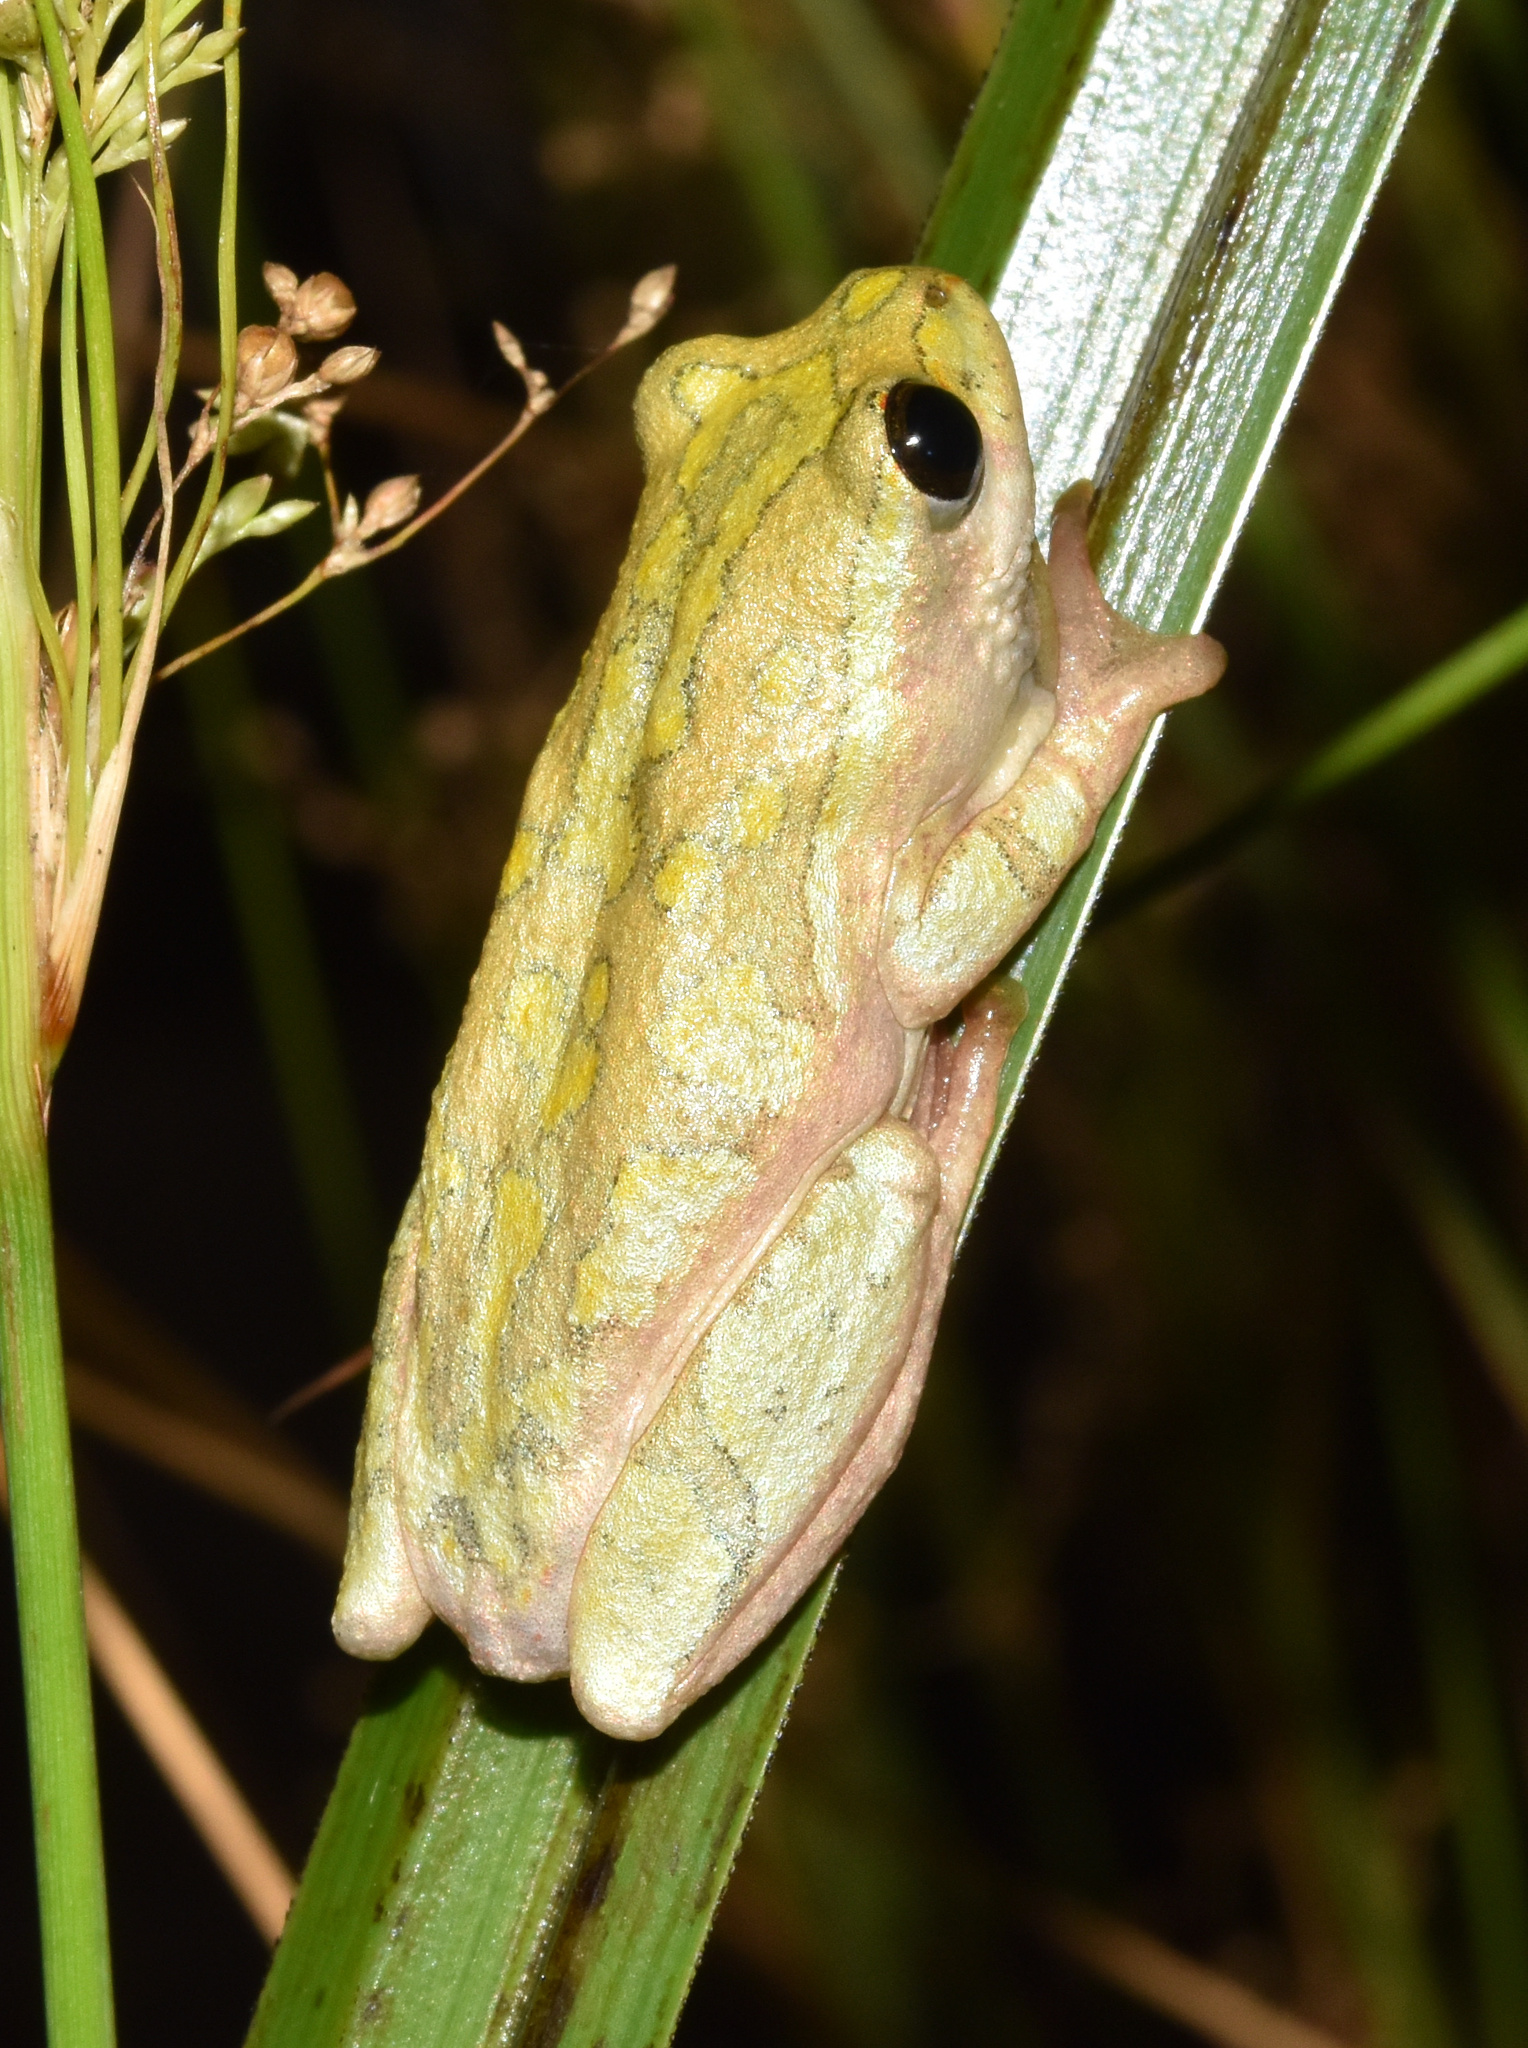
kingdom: Animalia
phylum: Chordata
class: Amphibia
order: Anura
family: Hyperoliidae
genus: Hyperolius
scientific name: Hyperolius marmoratus
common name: Painted reed frog
